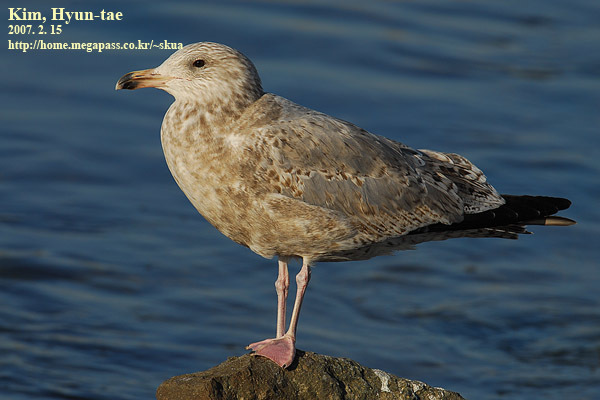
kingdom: Animalia
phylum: Chordata
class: Aves
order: Charadriiformes
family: Laridae
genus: Larus
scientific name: Larus schistisagus
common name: Slaty-backed gull
